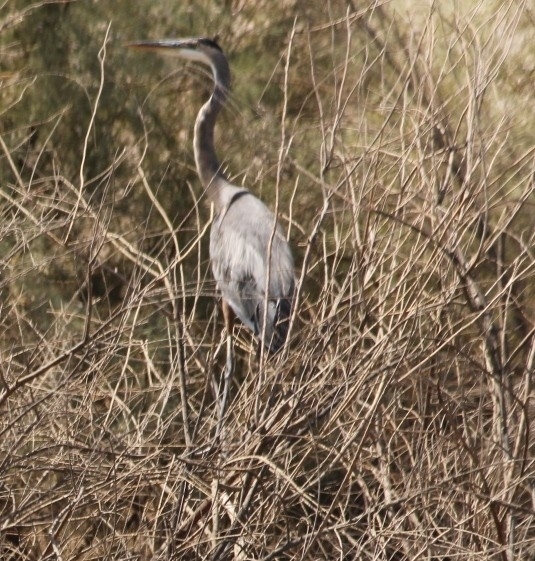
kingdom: Animalia
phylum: Chordata
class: Aves
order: Pelecaniformes
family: Ardeidae
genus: Ardea
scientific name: Ardea herodias
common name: Great blue heron
